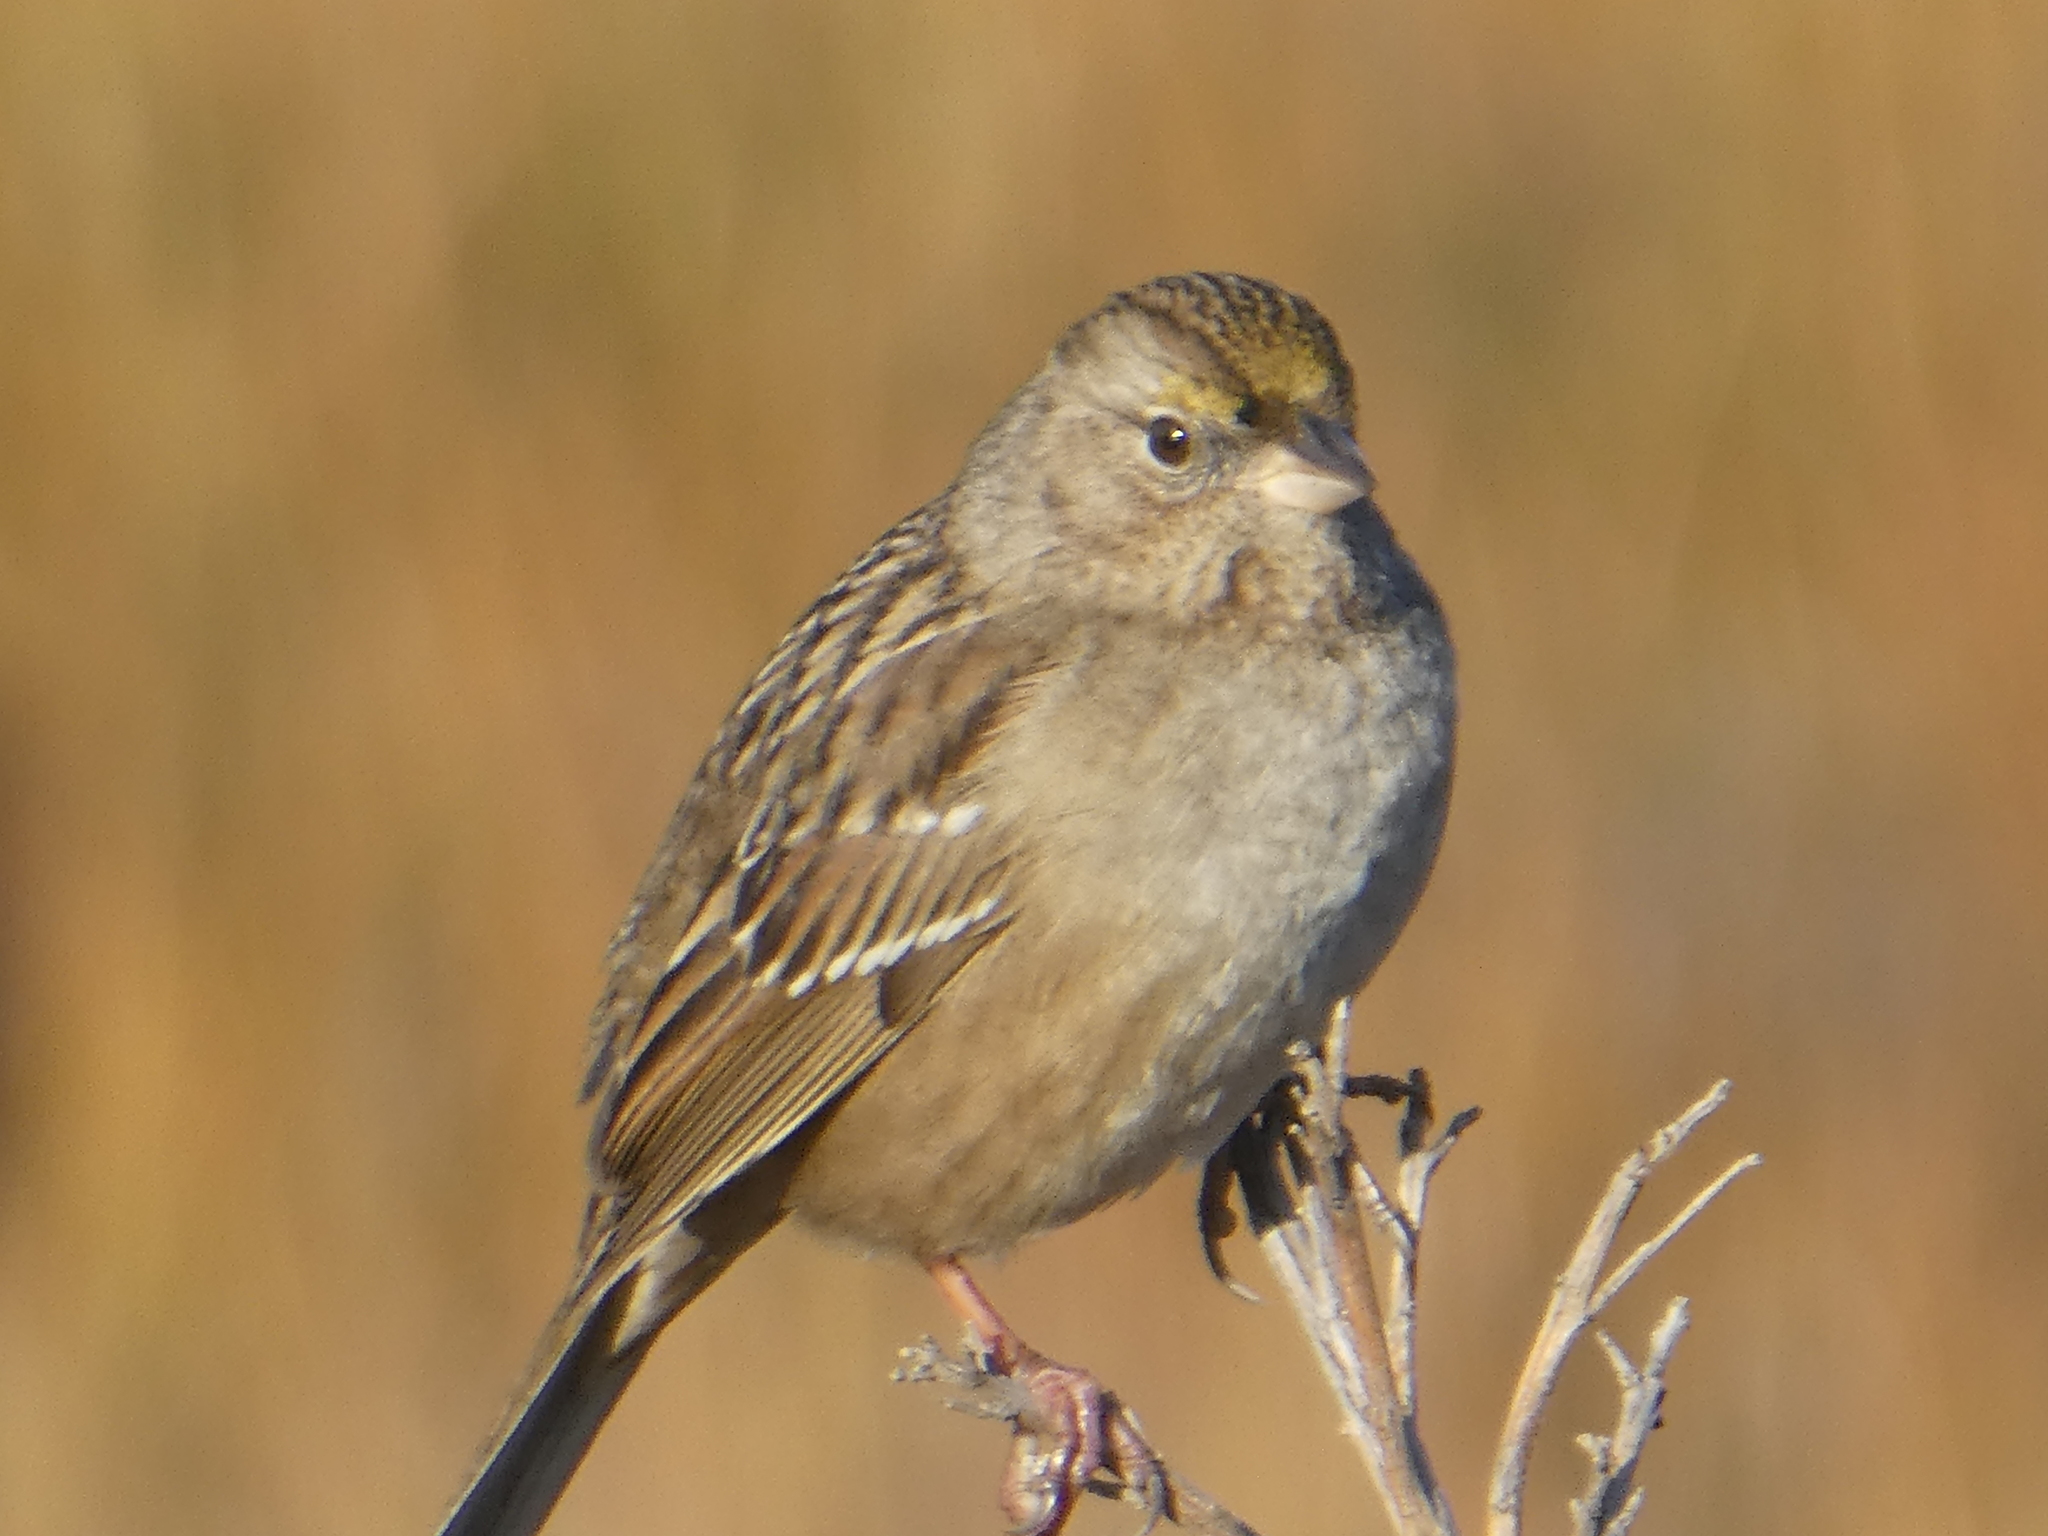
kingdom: Animalia
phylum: Chordata
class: Aves
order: Passeriformes
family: Passerellidae
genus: Zonotrichia
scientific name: Zonotrichia atricapilla
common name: Golden-crowned sparrow
